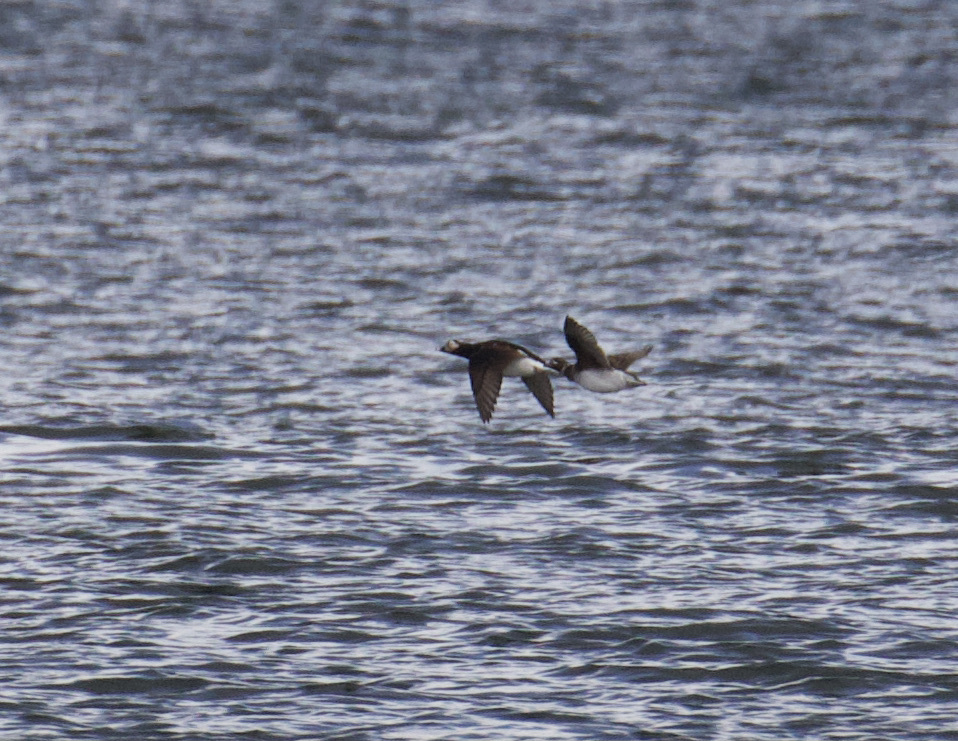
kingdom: Animalia
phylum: Chordata
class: Aves
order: Anseriformes
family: Anatidae
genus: Clangula
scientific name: Clangula hyemalis
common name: Long-tailed duck
